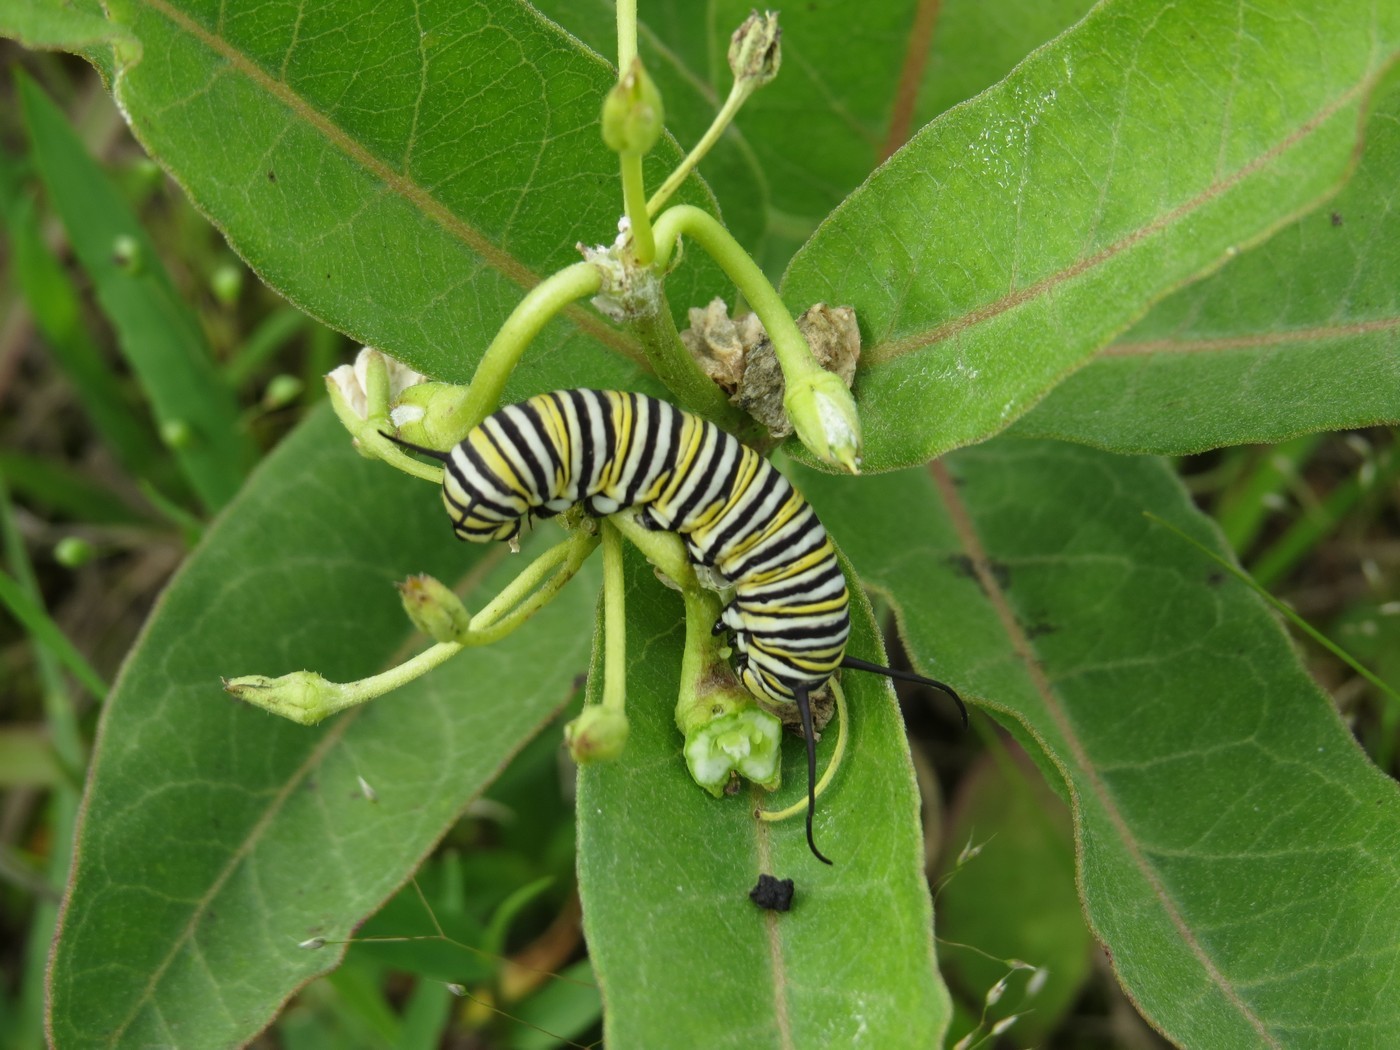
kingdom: Animalia
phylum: Arthropoda
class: Insecta
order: Lepidoptera
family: Nymphalidae
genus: Danaus
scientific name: Danaus plexippus
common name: Monarch
